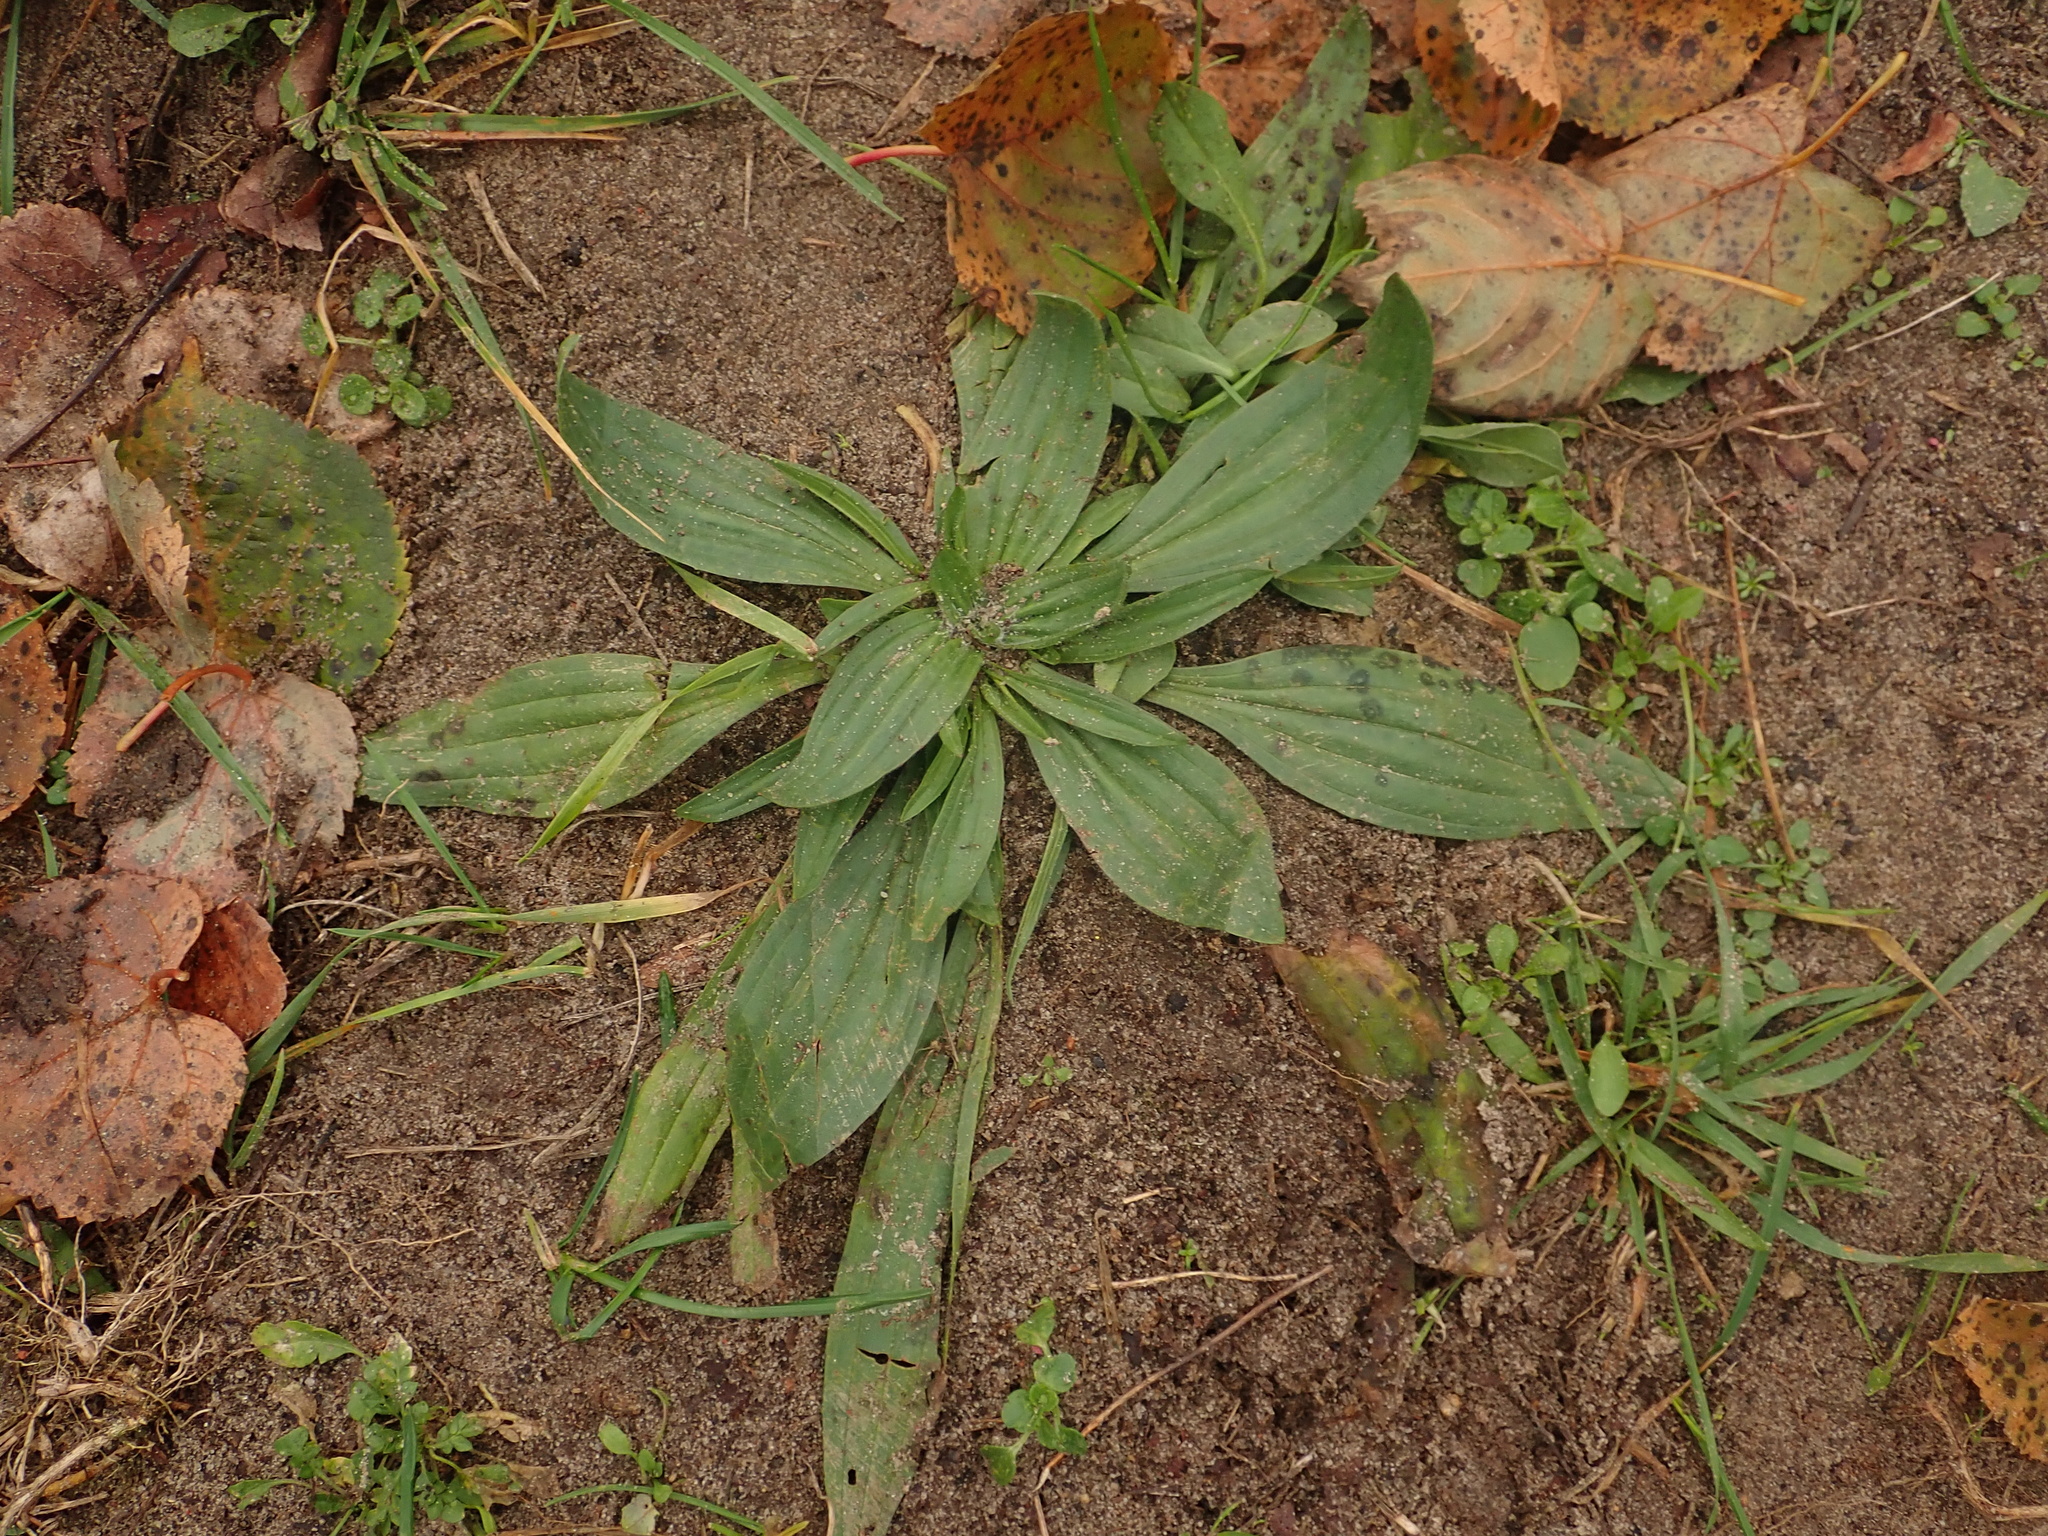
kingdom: Plantae
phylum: Tracheophyta
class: Magnoliopsida
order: Lamiales
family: Plantaginaceae
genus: Plantago
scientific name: Plantago lanceolata
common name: Ribwort plantain
